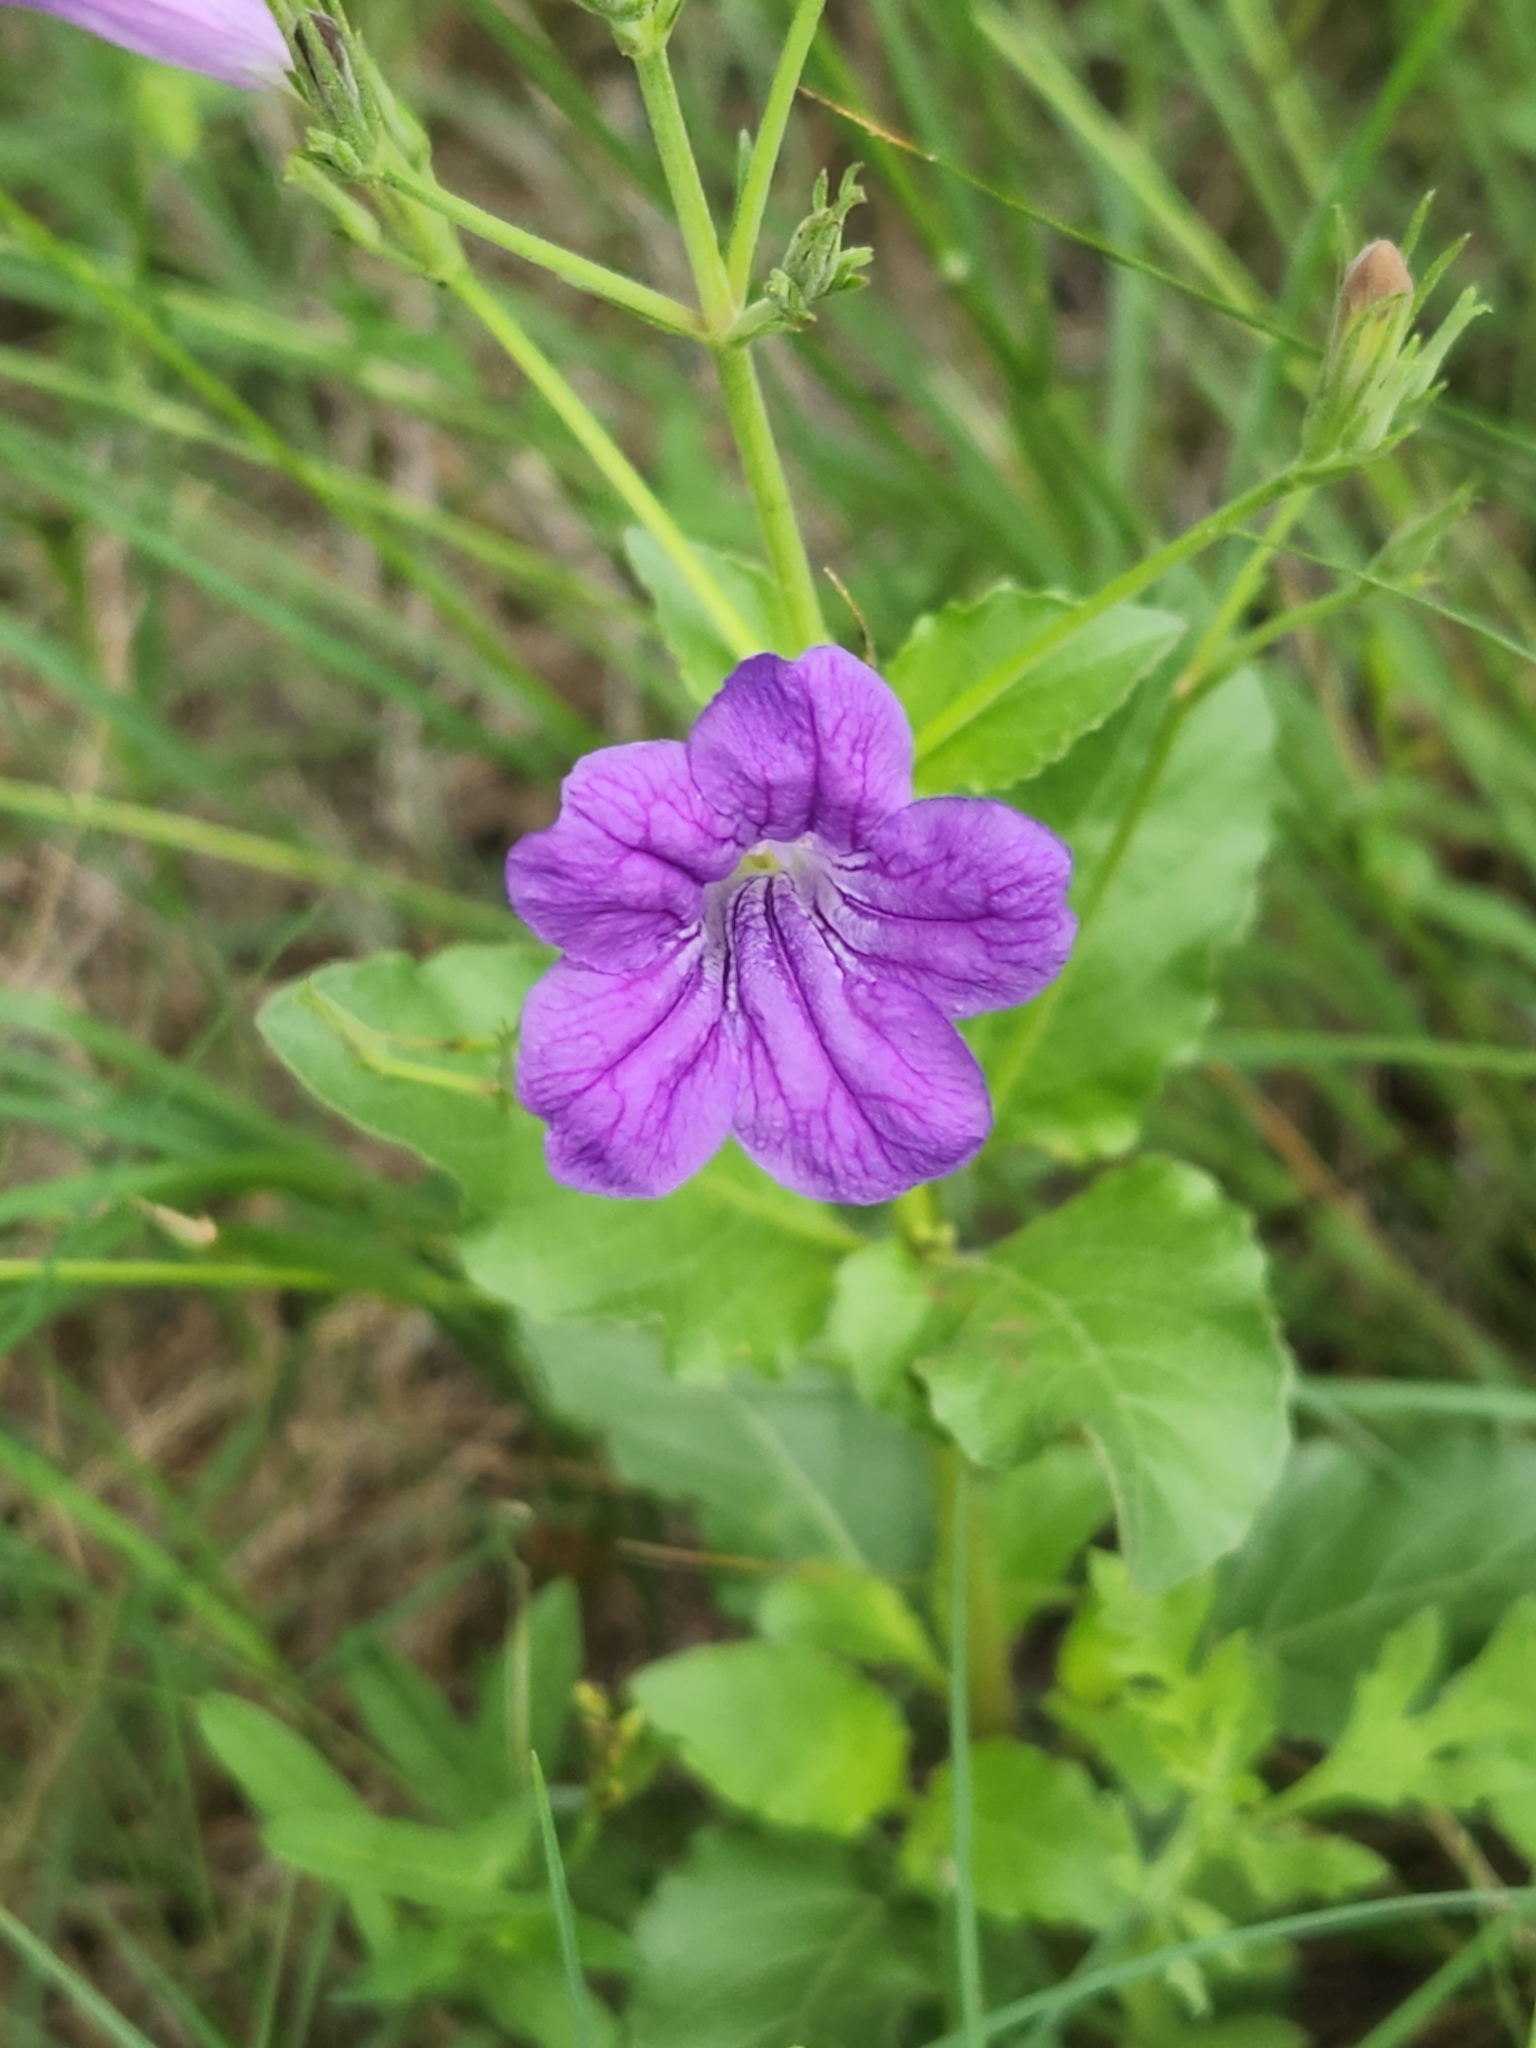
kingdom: Plantae
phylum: Tracheophyta
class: Magnoliopsida
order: Lamiales
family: Acanthaceae
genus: Ruellia
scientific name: Ruellia ciliatiflora
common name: Hairyflower wild petunia
